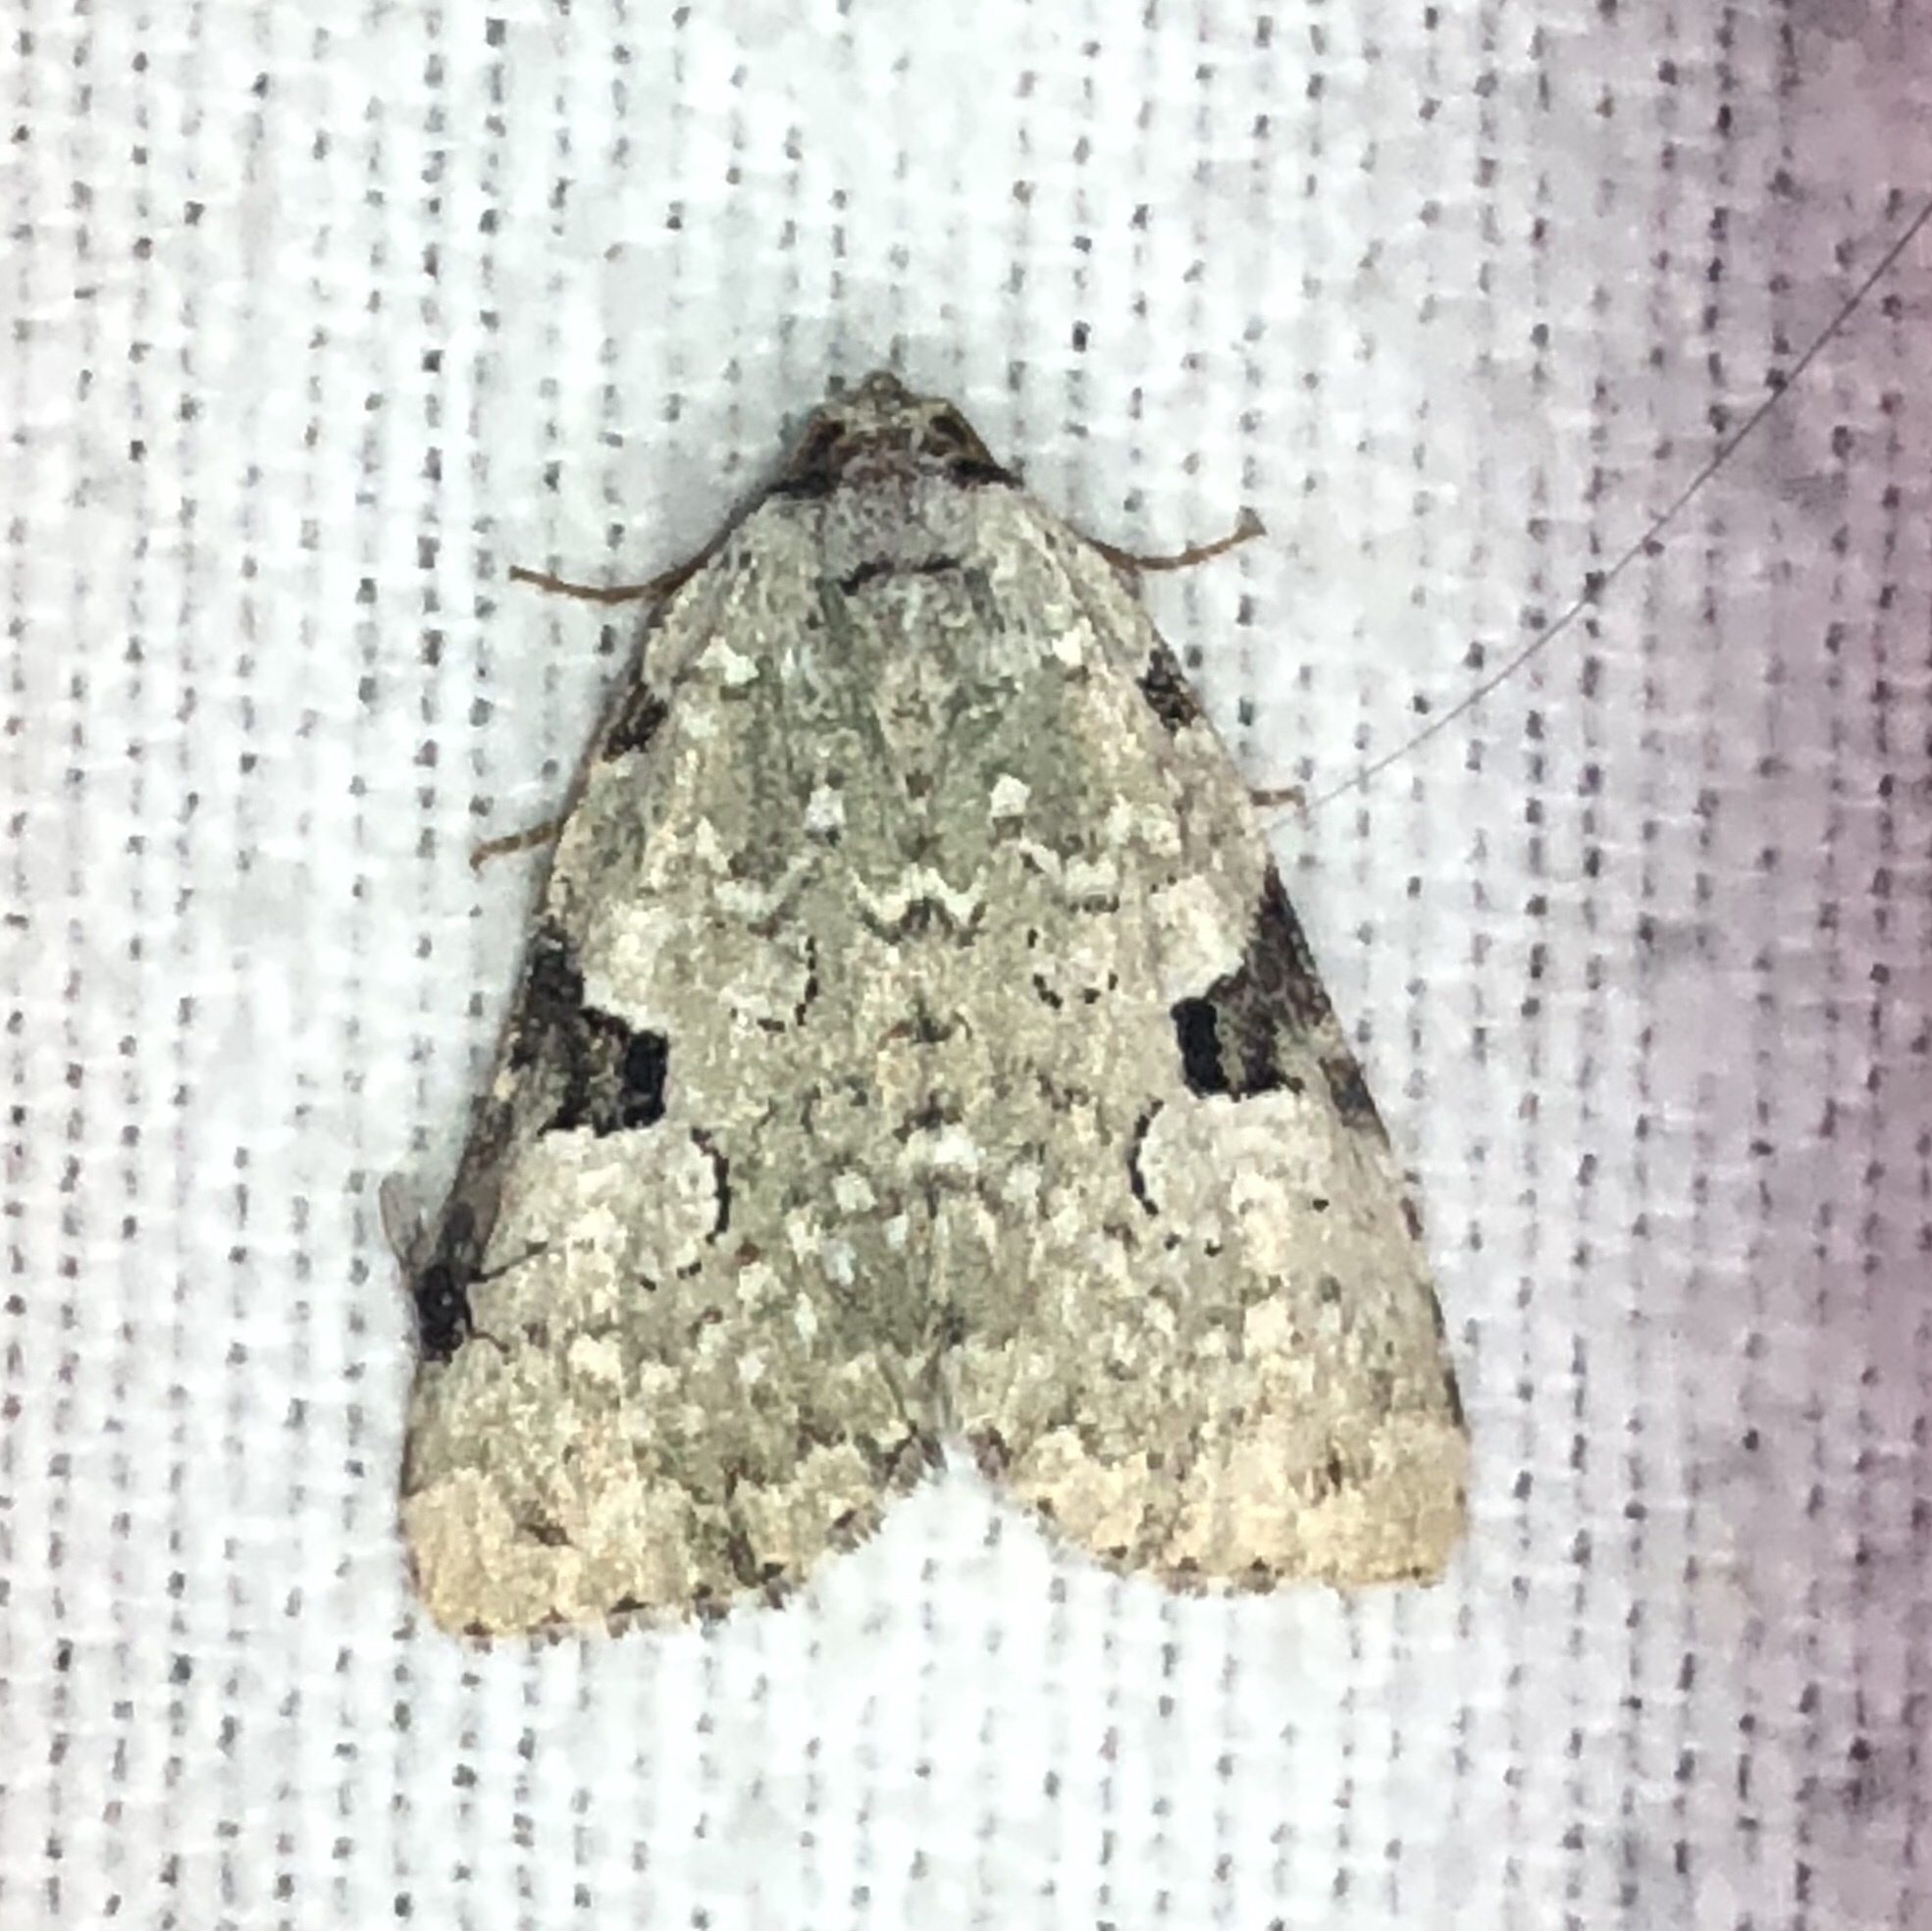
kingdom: Animalia
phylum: Arthropoda
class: Insecta
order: Lepidoptera
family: Noctuidae
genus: Leuconycta
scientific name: Leuconycta diphteroides
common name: Green leuconycta moth
